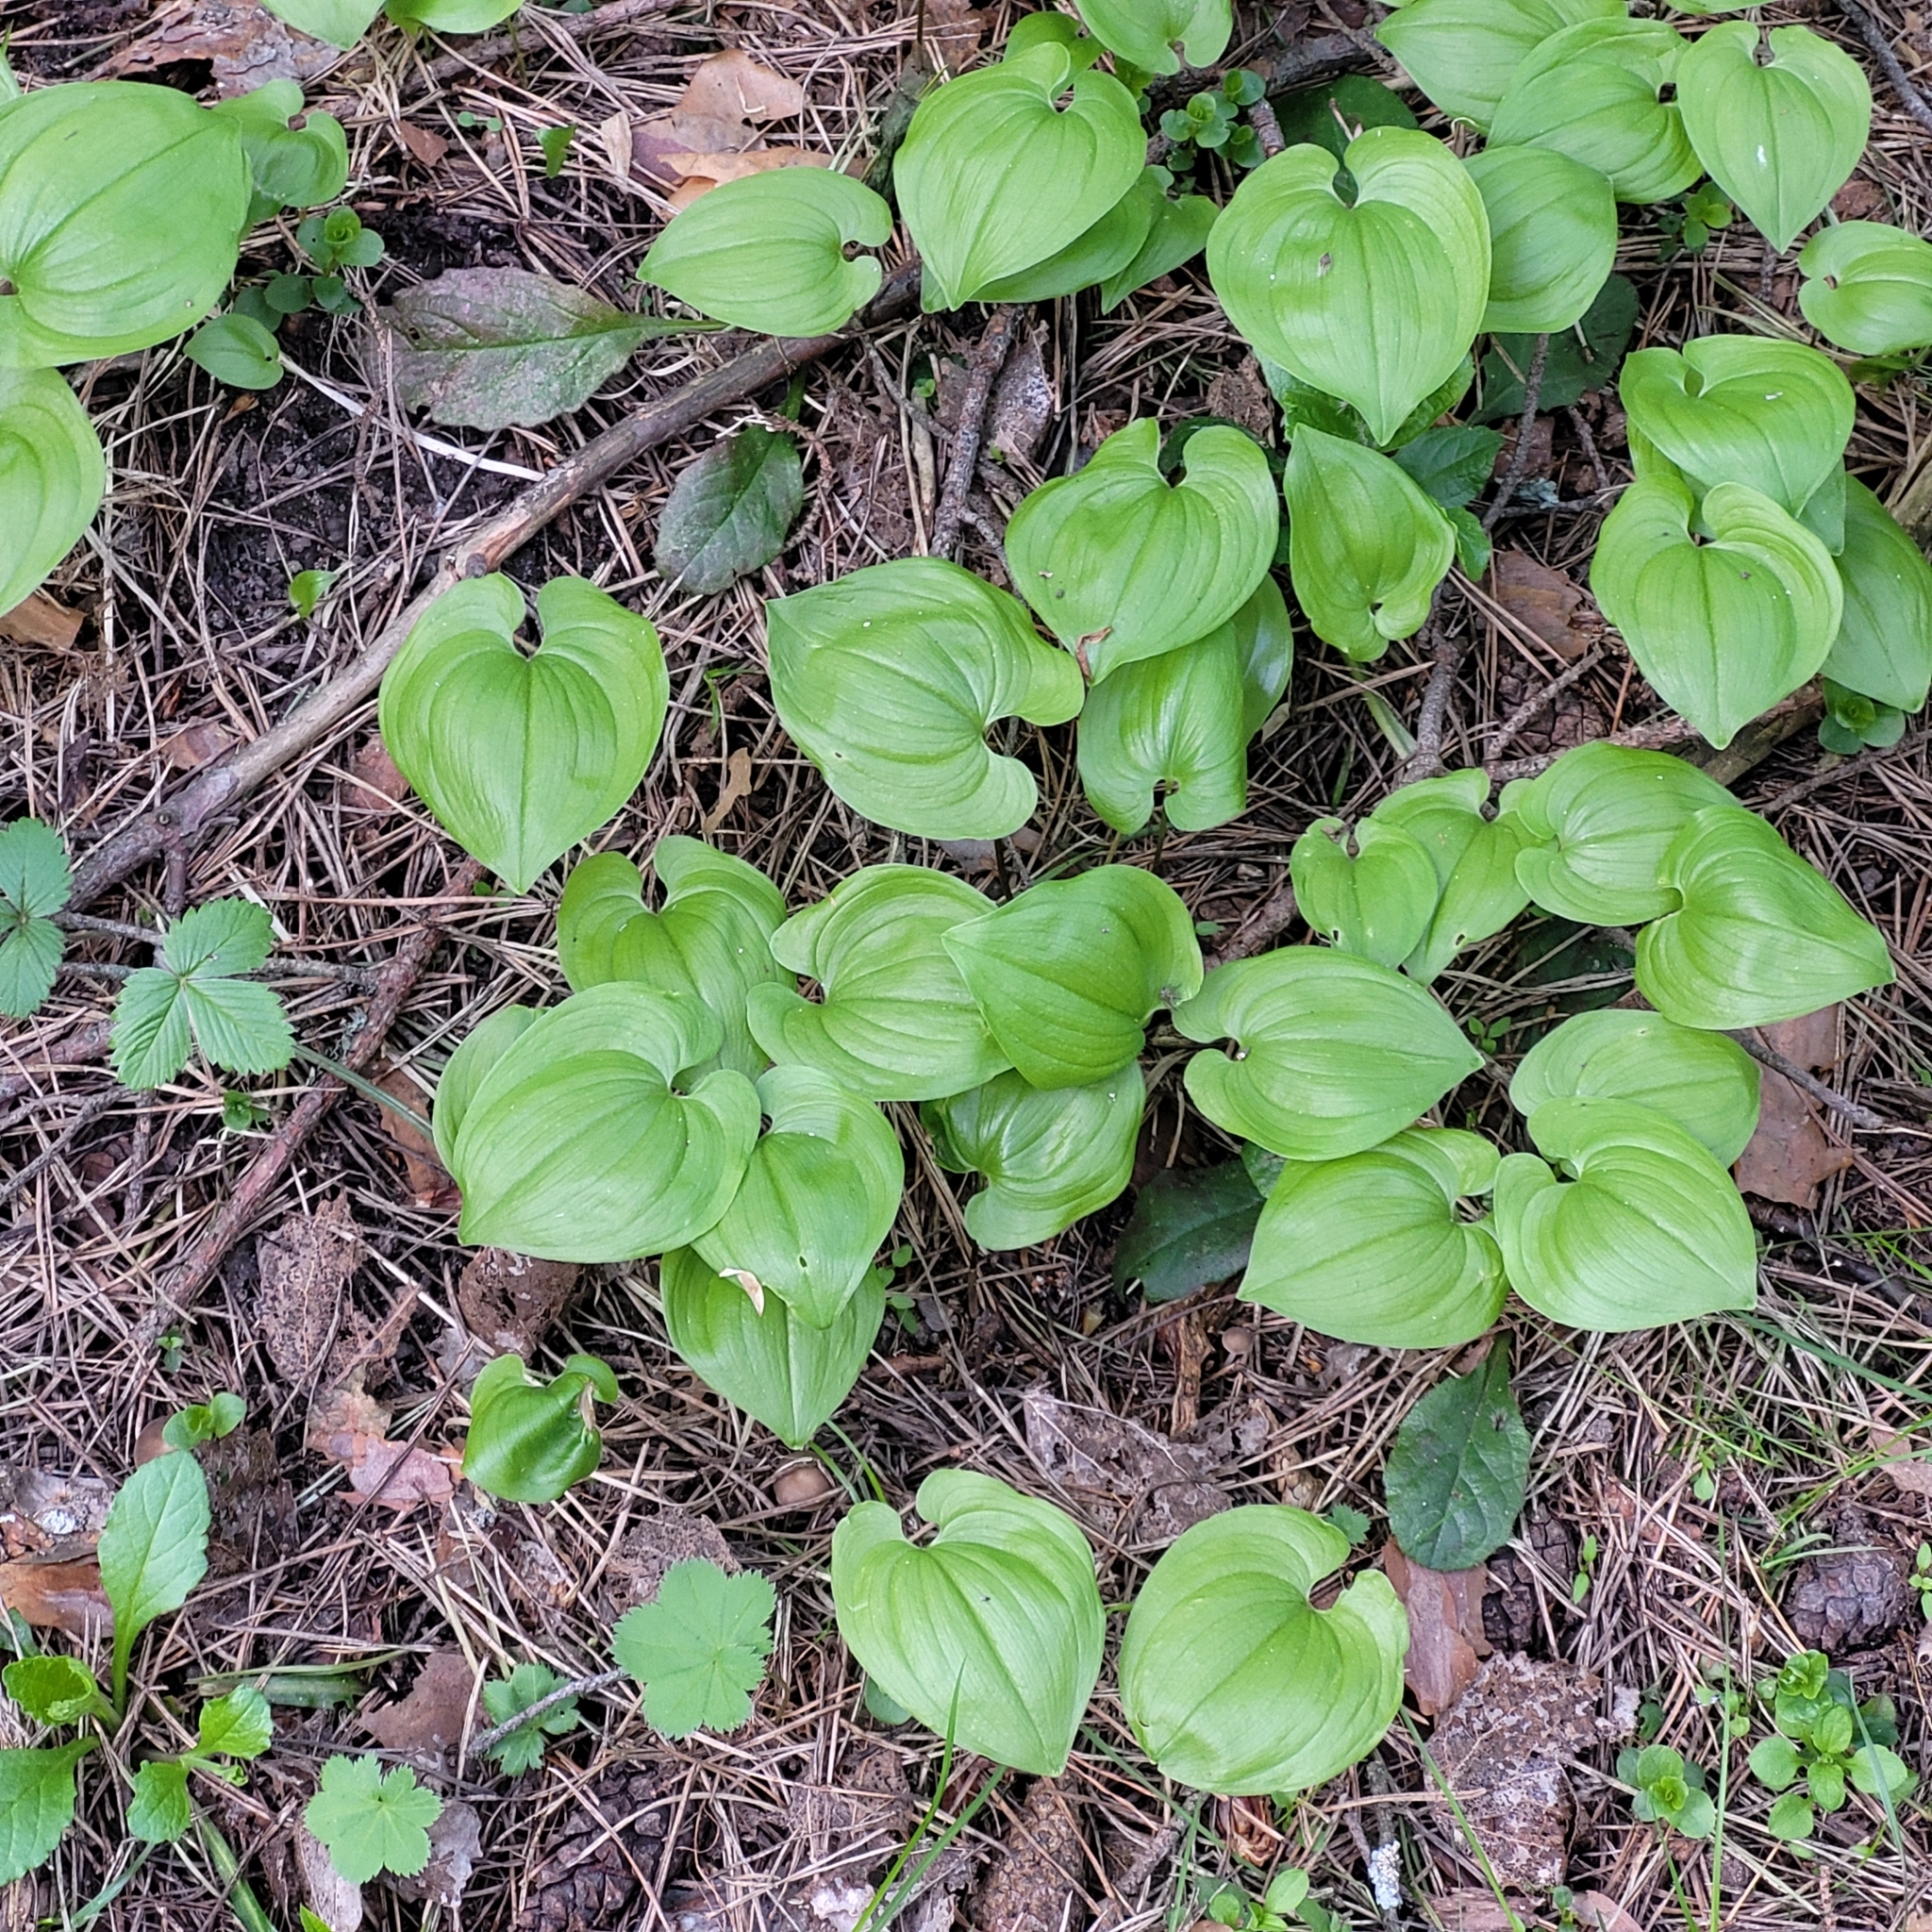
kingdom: Plantae
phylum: Tracheophyta
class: Liliopsida
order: Asparagales
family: Asparagaceae
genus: Maianthemum
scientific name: Maianthemum bifolium
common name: May lily
